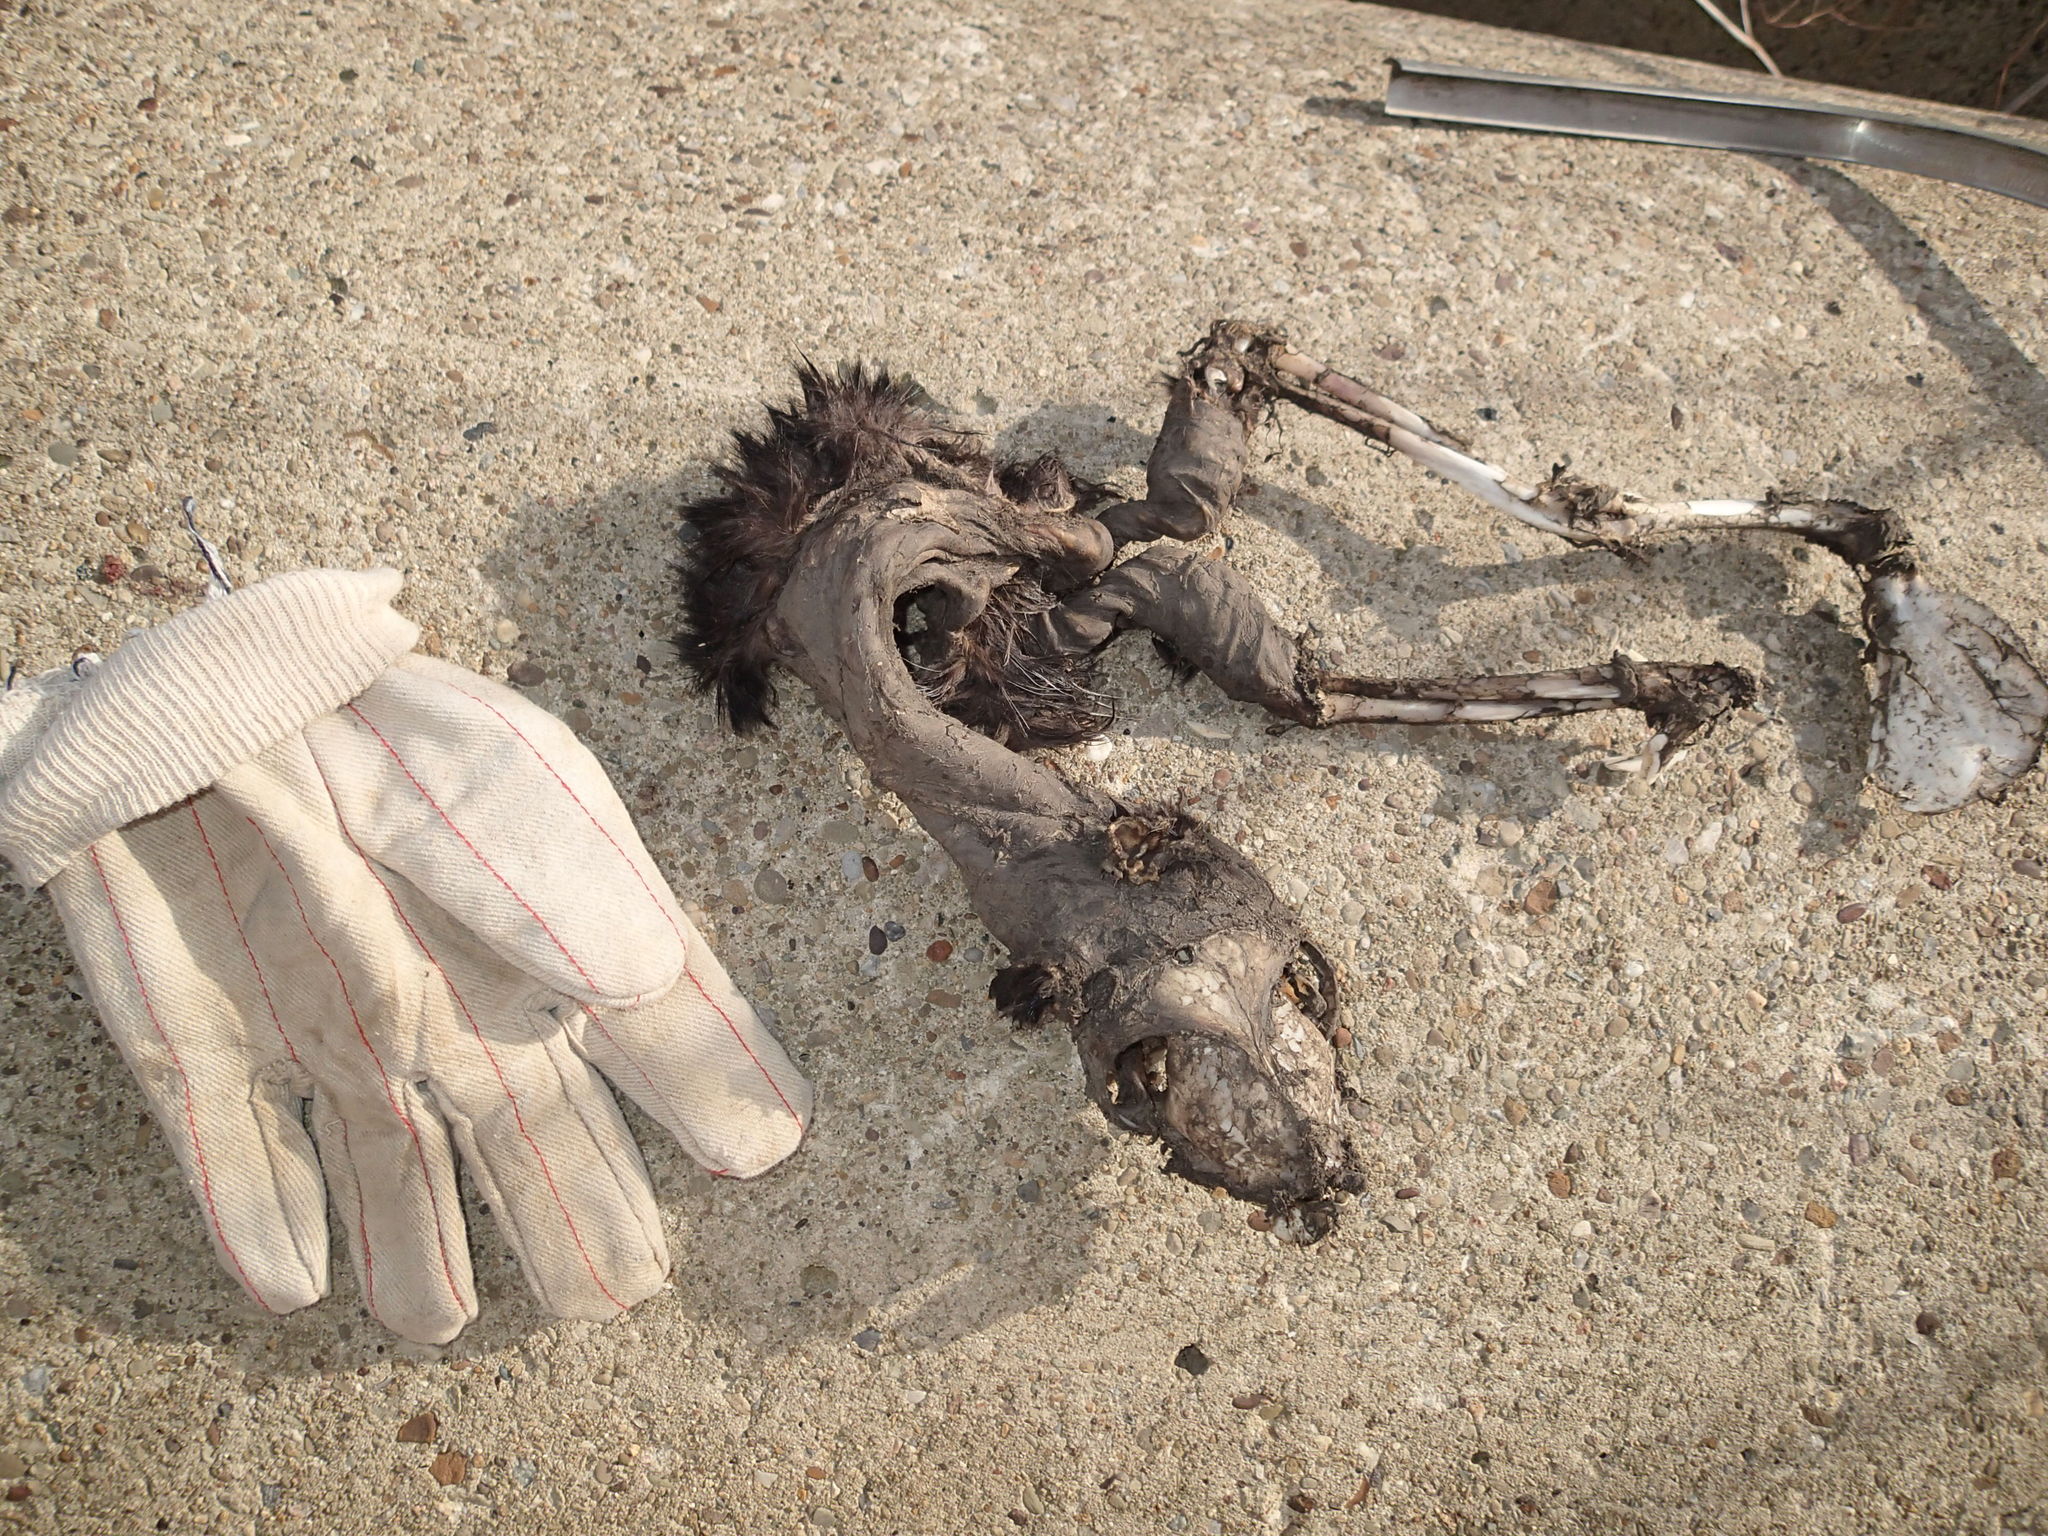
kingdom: Animalia
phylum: Chordata
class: Mammalia
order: Carnivora
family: Felidae
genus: Felis
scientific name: Felis catus
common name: Domestic cat
